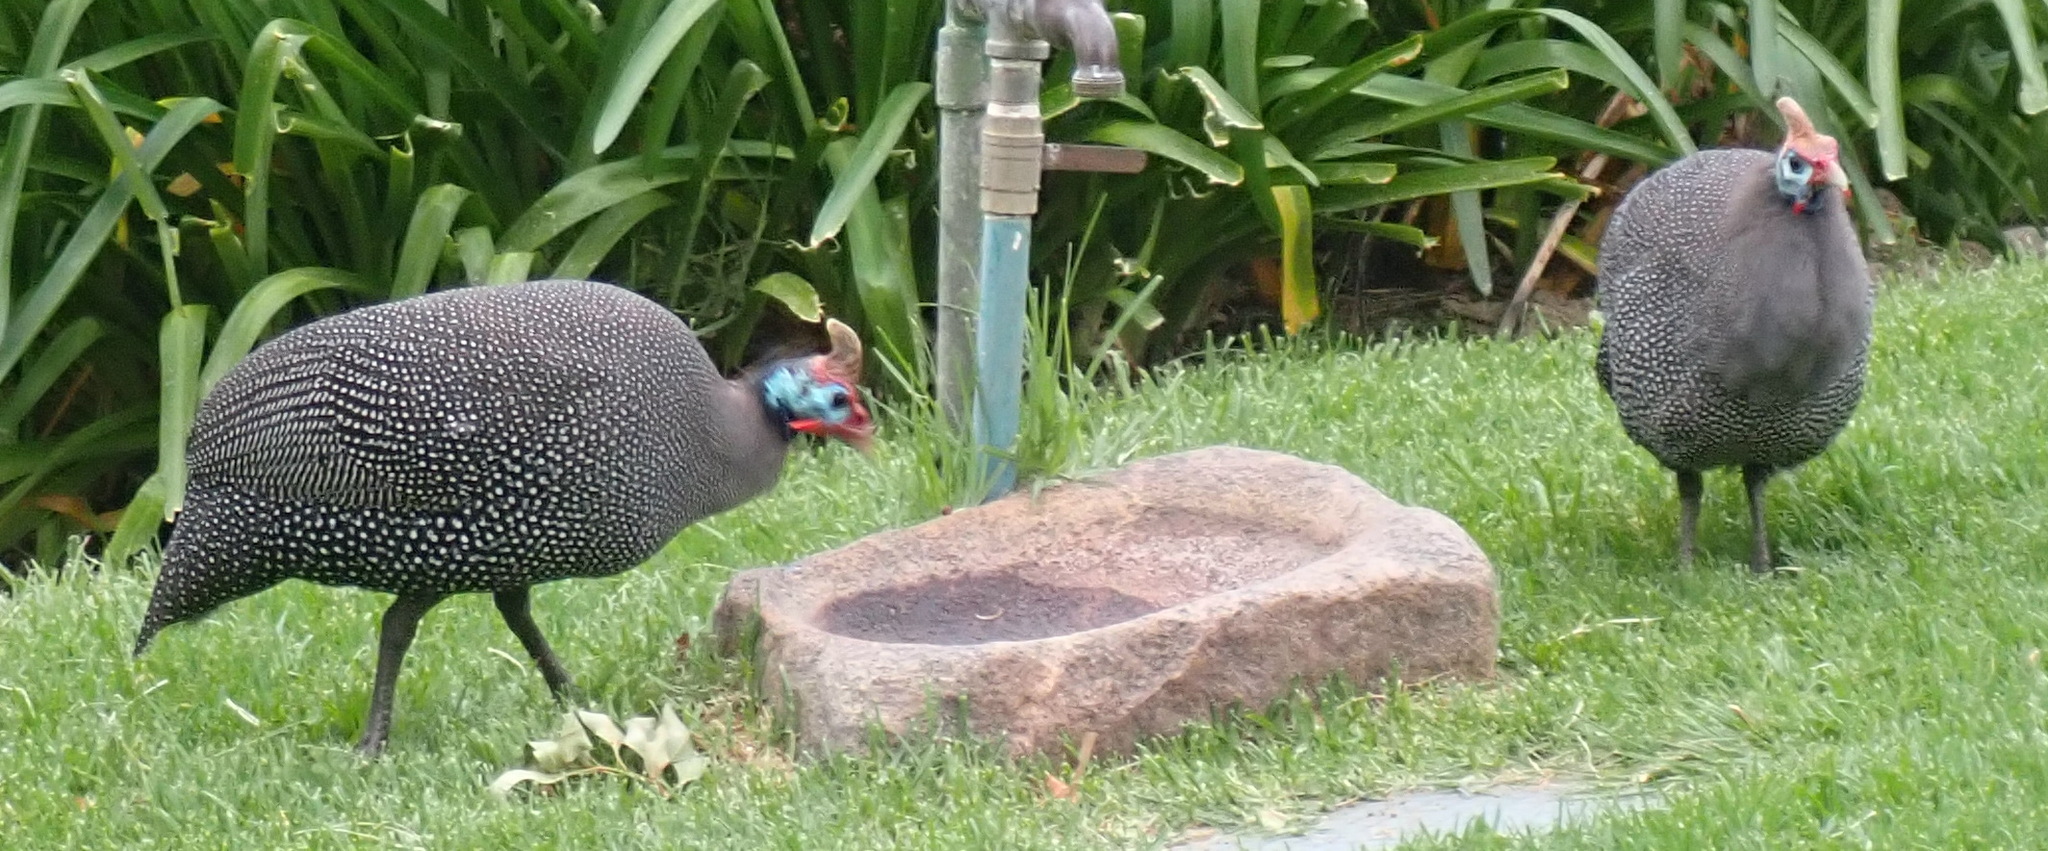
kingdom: Animalia
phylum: Chordata
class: Aves
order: Galliformes
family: Numididae
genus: Numida
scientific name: Numida meleagris
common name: Helmeted guineafowl
